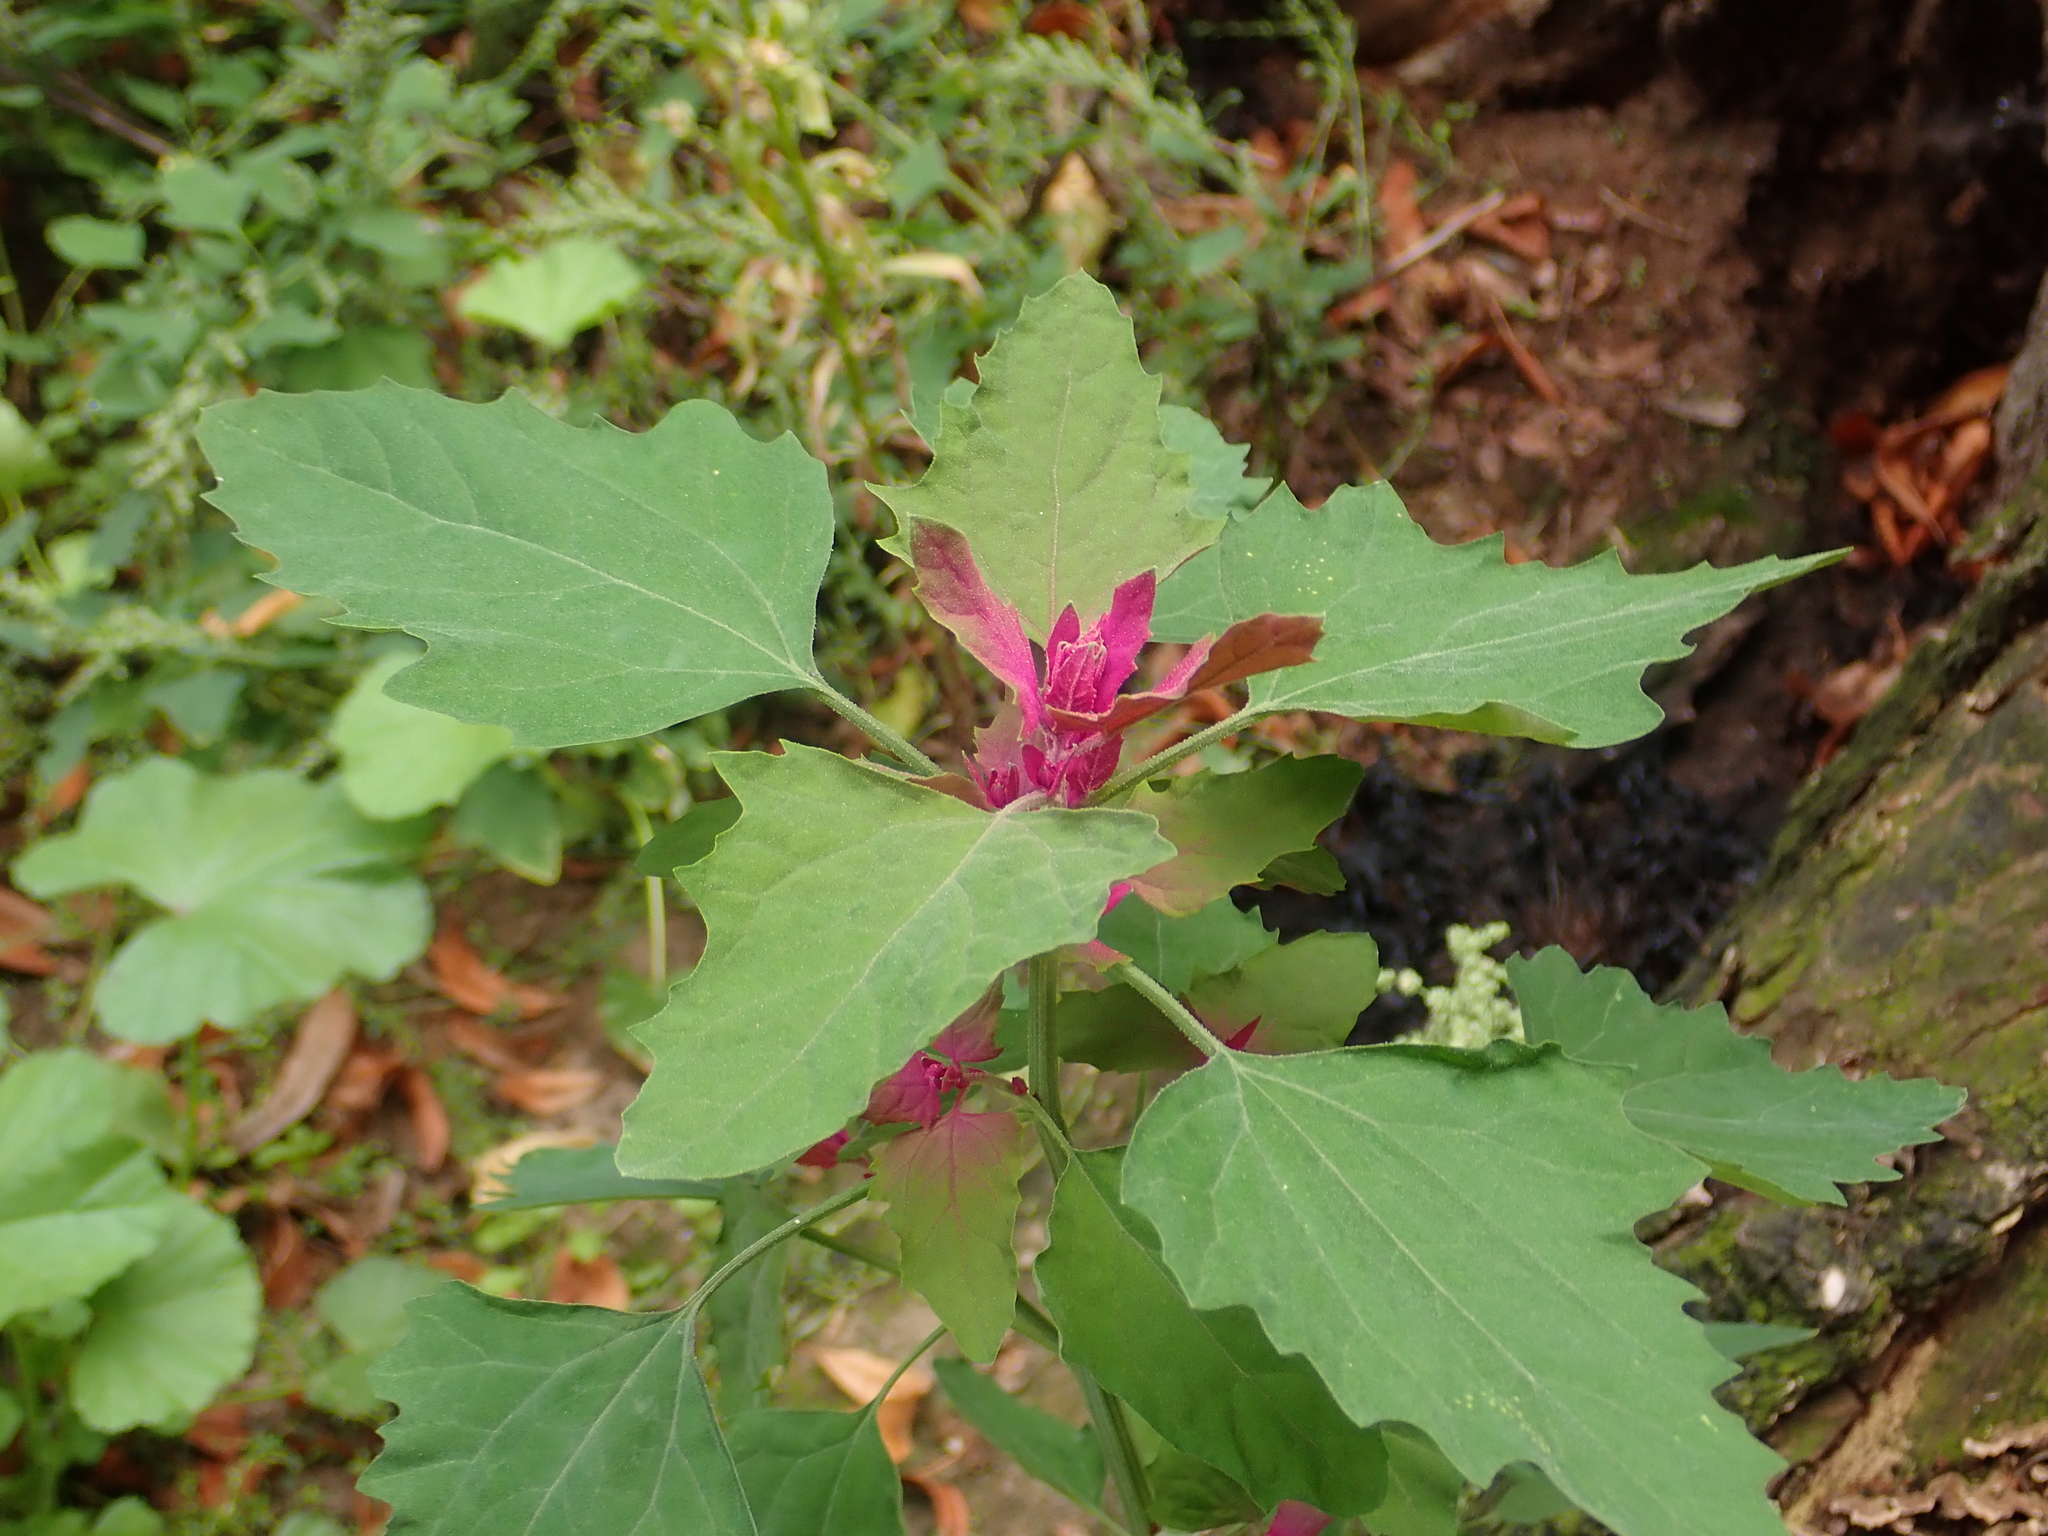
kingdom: Plantae
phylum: Tracheophyta
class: Magnoliopsida
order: Caryophyllales
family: Amaranthaceae
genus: Chenopodium
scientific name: Chenopodium giganteum
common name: Magentaspreen
